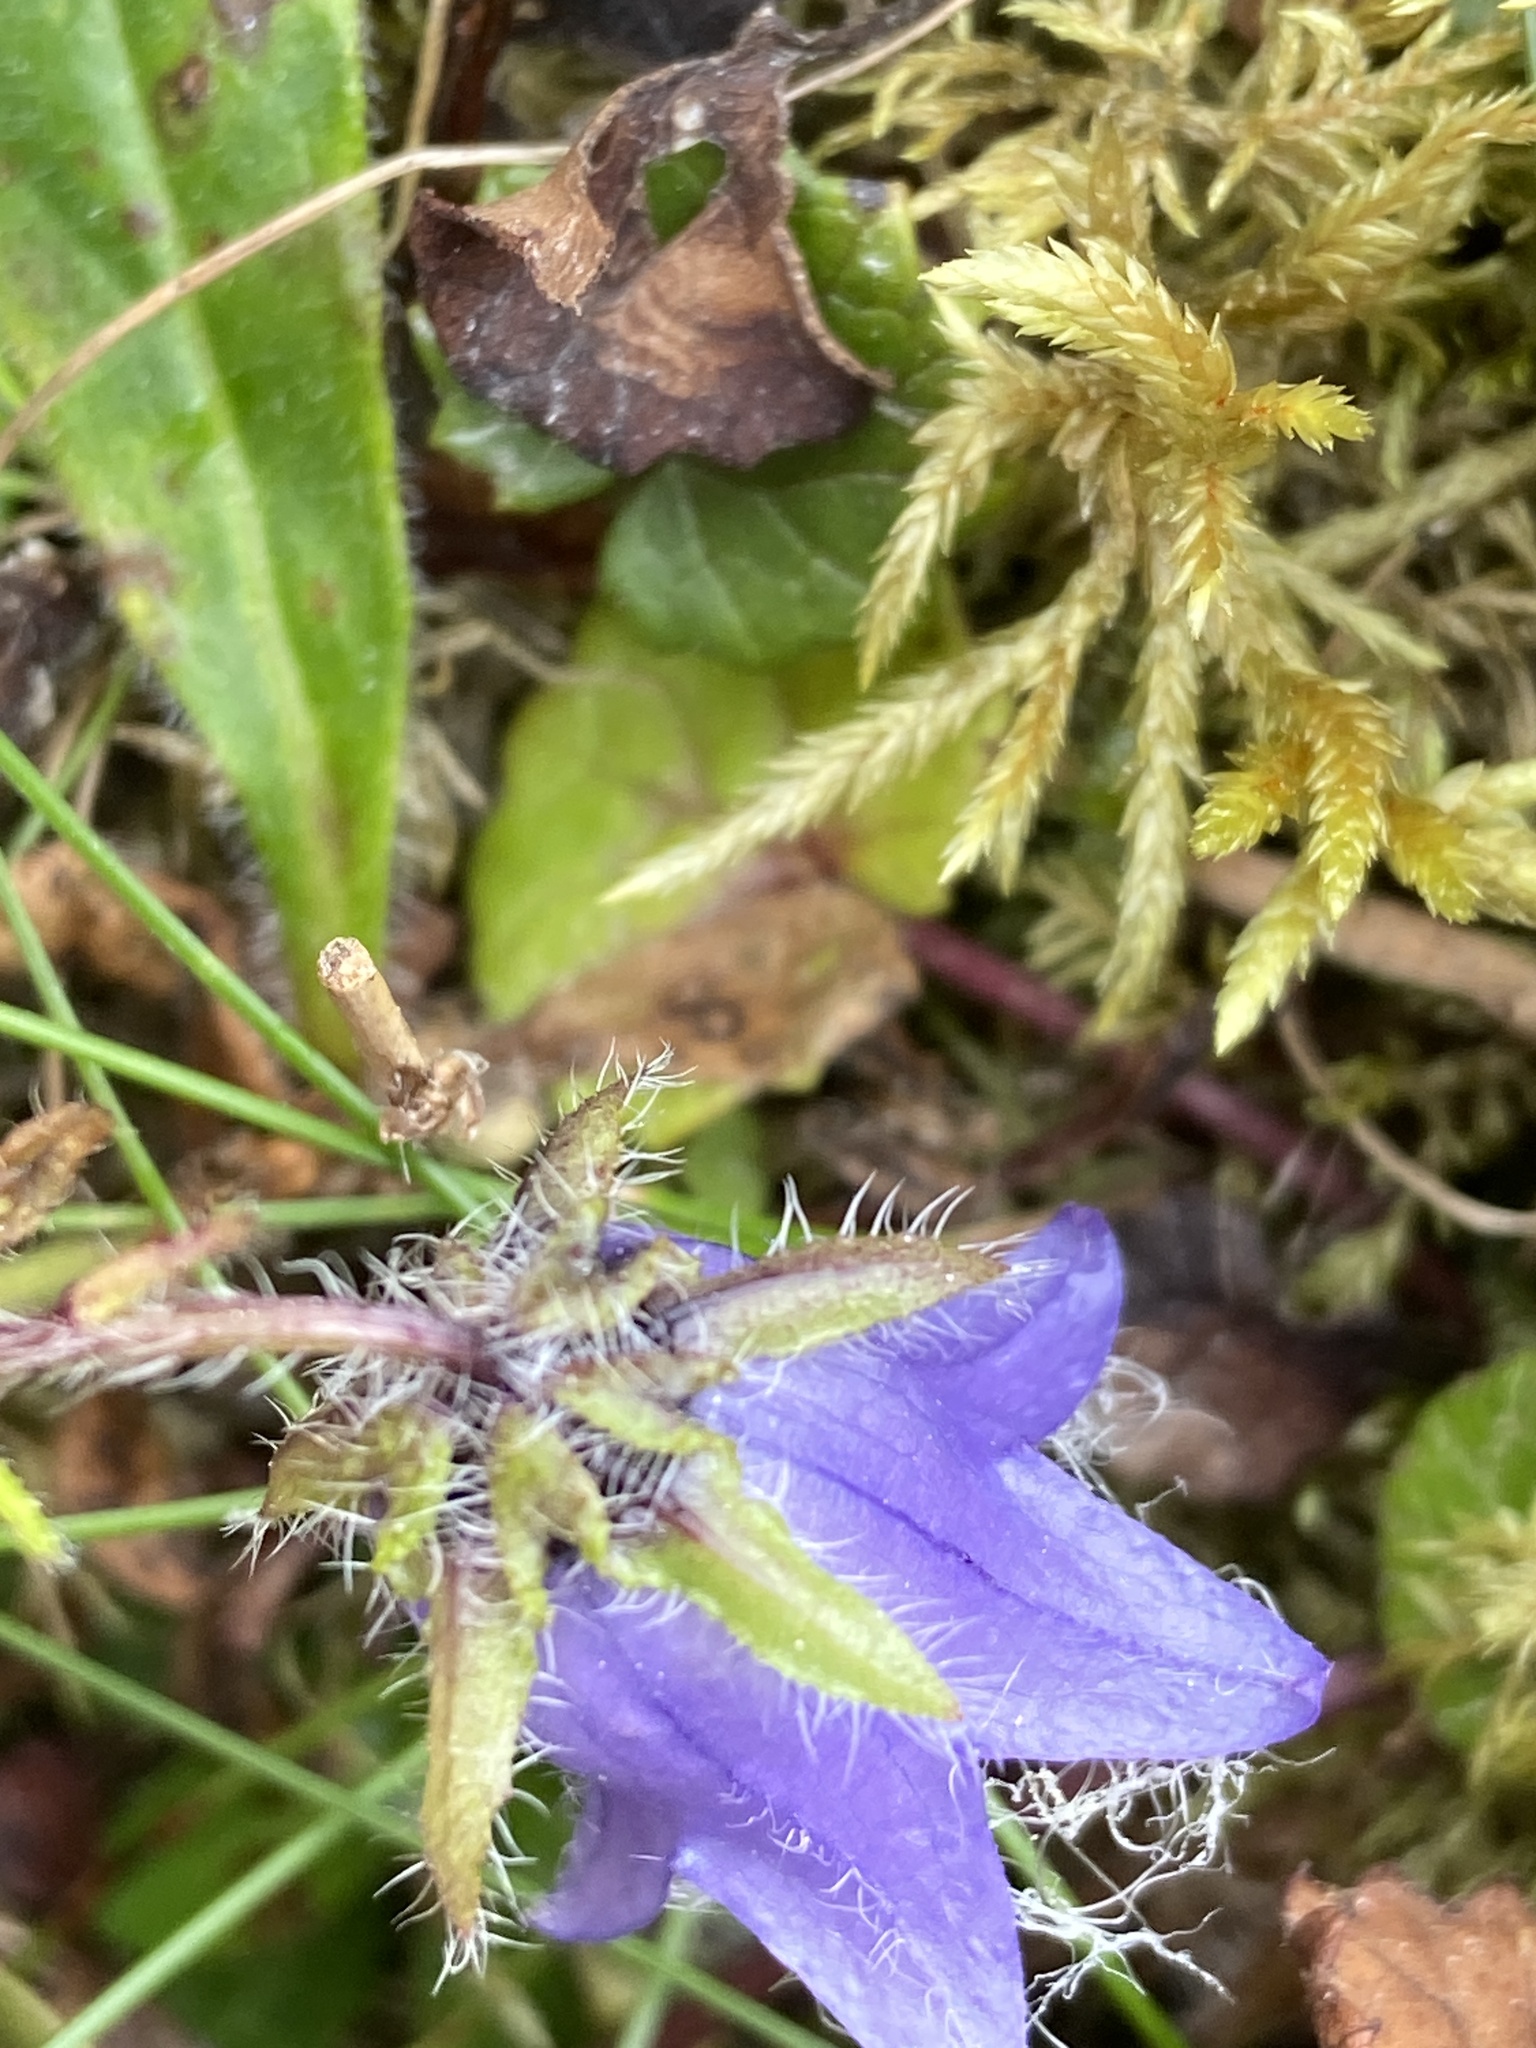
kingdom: Plantae
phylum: Tracheophyta
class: Magnoliopsida
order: Asterales
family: Campanulaceae
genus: Campanula
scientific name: Campanula barbata
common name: Bearded bellflower
